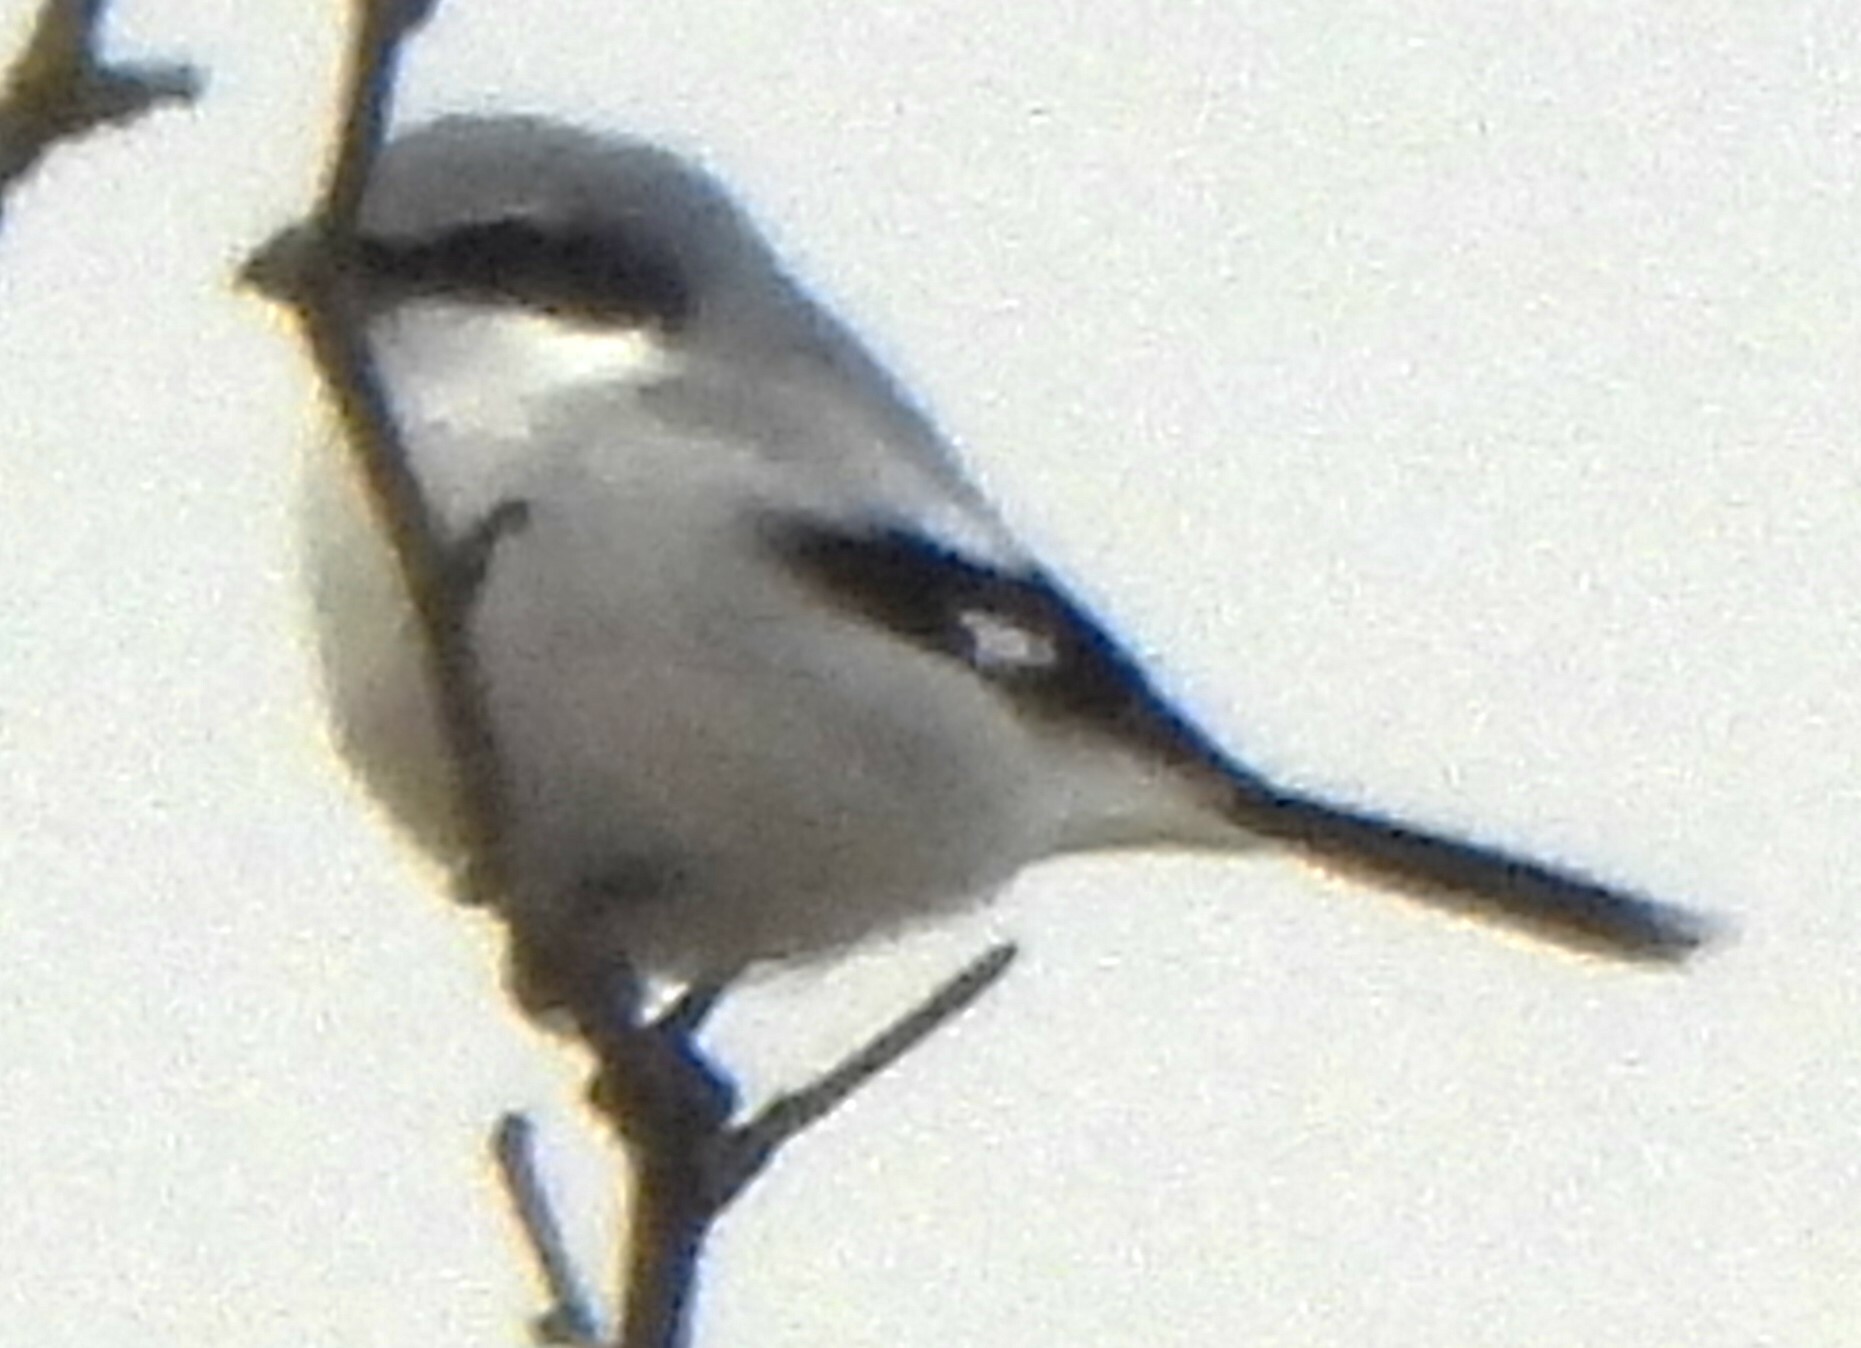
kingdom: Animalia
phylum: Chordata
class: Aves
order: Passeriformes
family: Laniidae
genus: Lanius
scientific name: Lanius ludovicianus
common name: Loggerhead shrike
